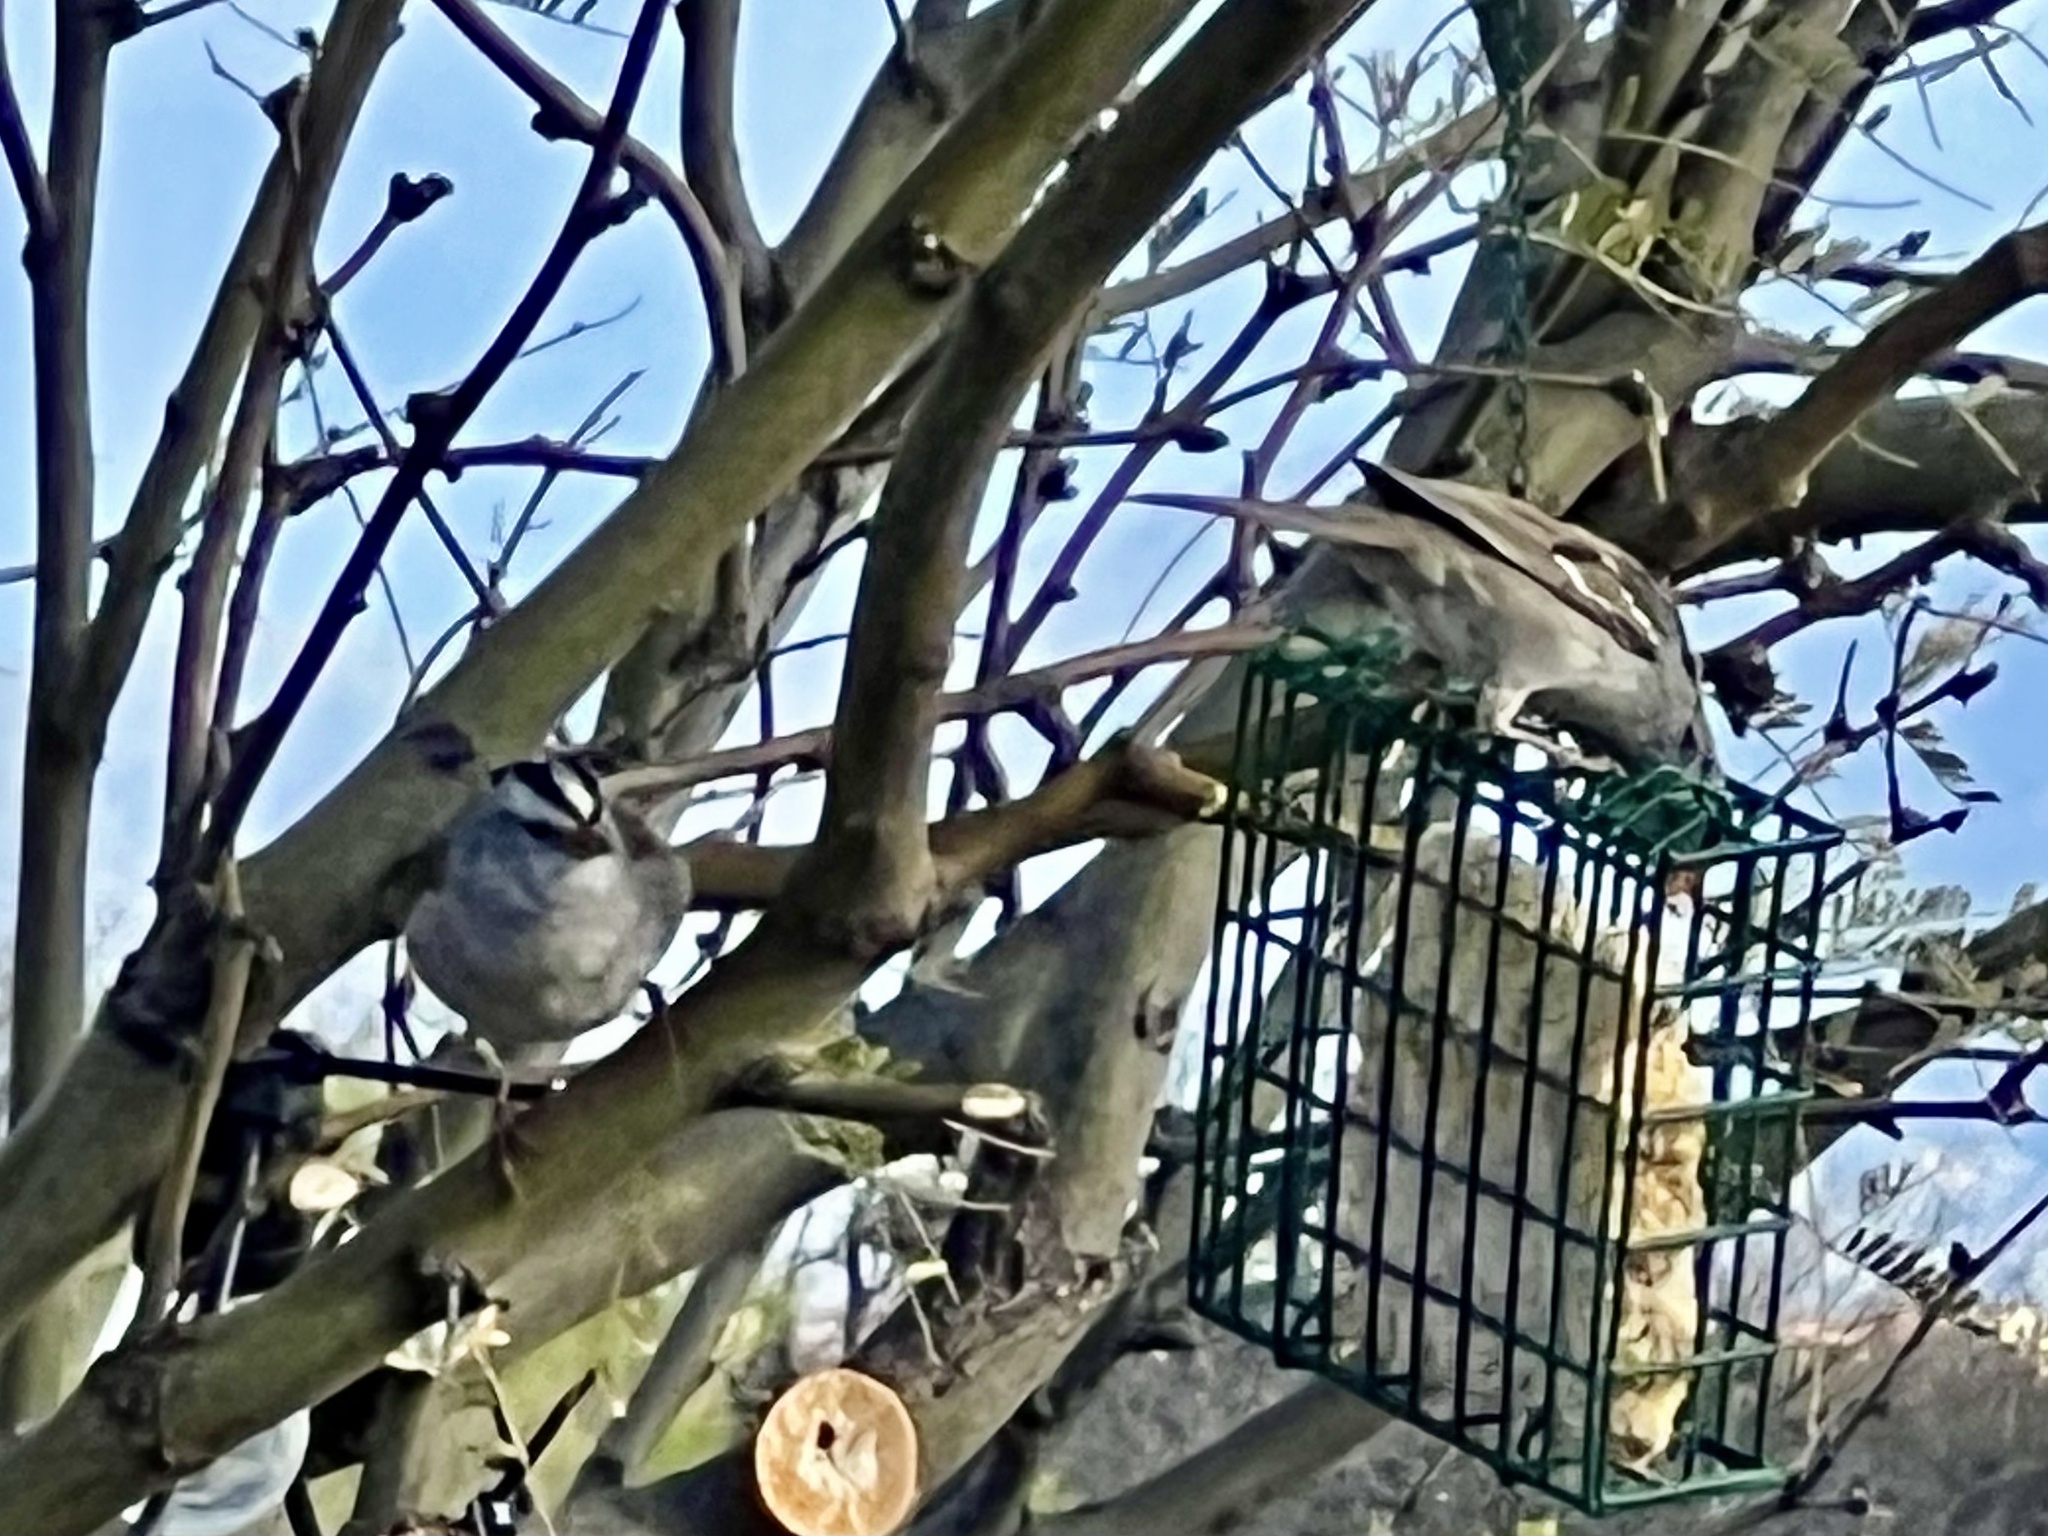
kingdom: Animalia
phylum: Chordata
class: Aves
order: Passeriformes
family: Passerellidae
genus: Zonotrichia
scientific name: Zonotrichia leucophrys
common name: White-crowned sparrow
